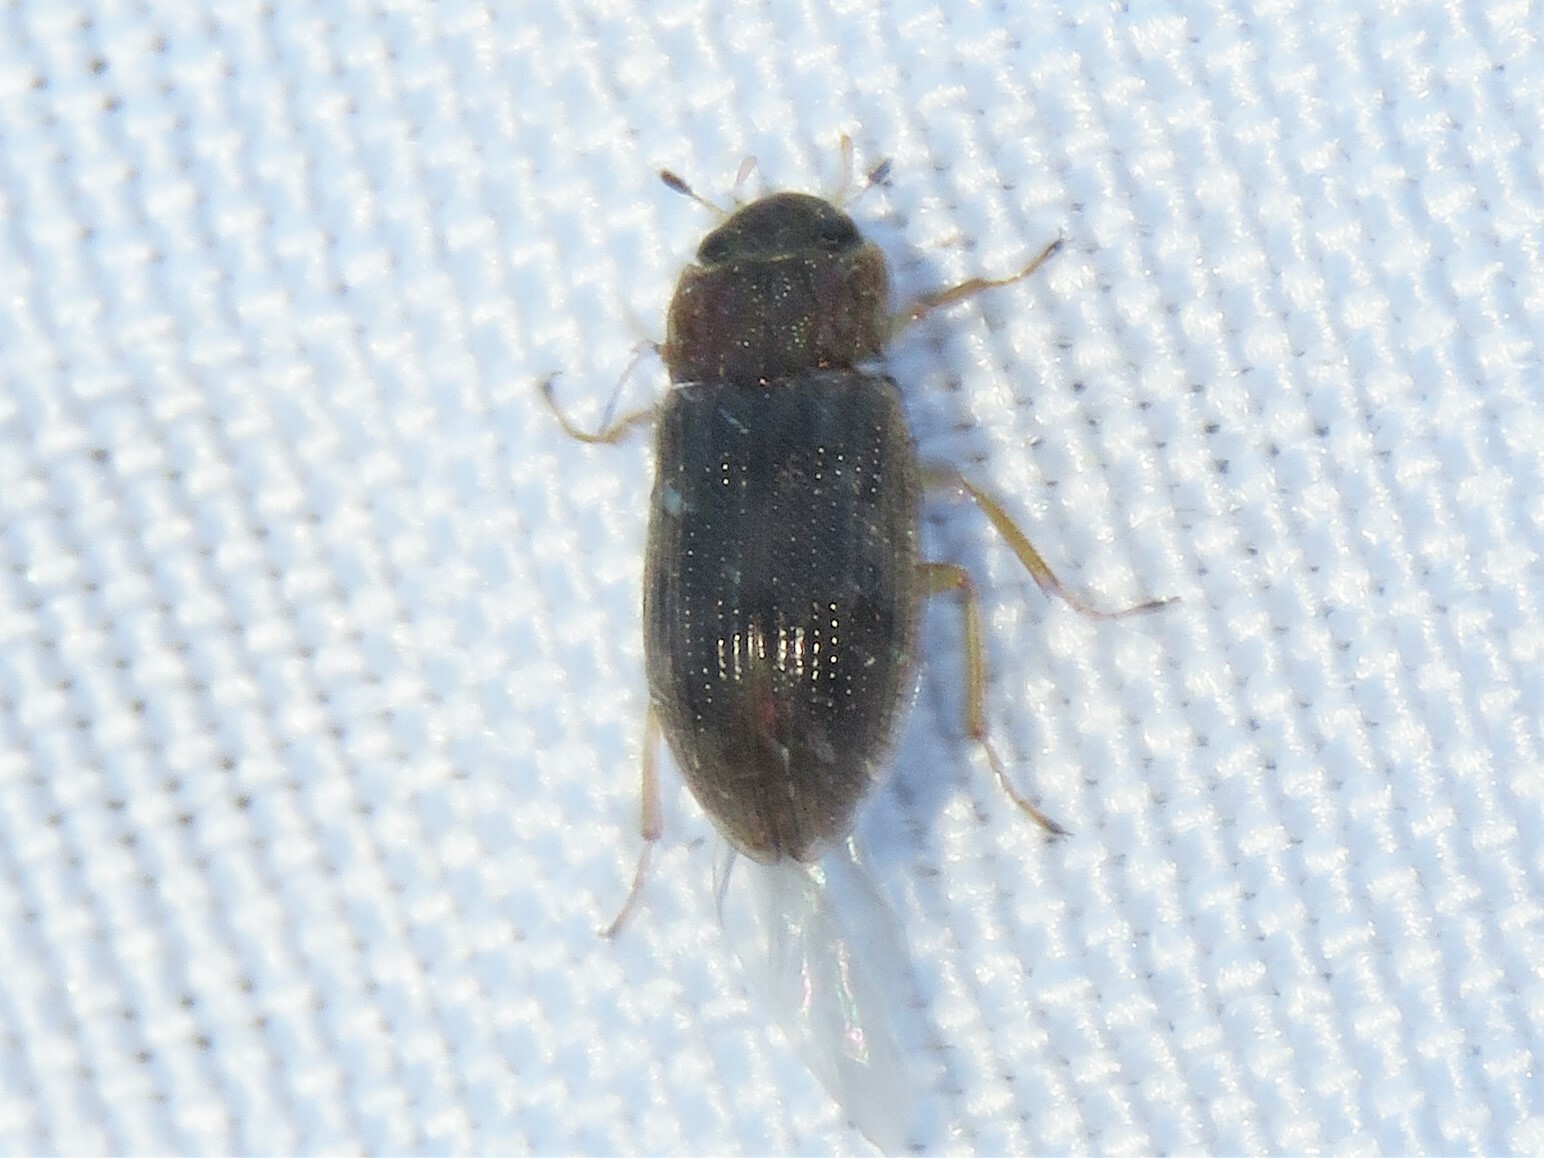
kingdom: Animalia
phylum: Arthropoda
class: Insecta
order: Coleoptera
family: Helophoridae
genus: Helophorus
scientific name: Helophorus
